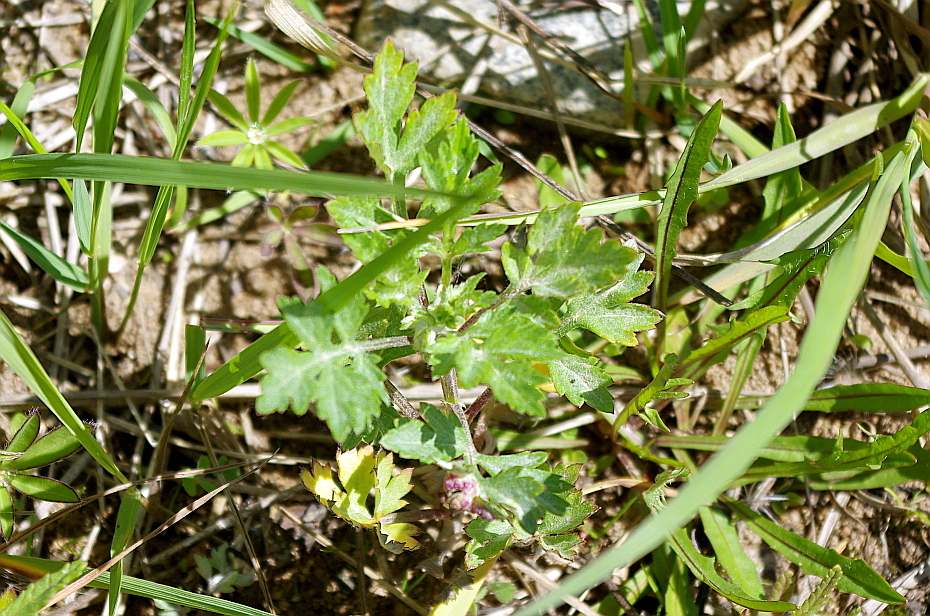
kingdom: Plantae
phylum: Tracheophyta
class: Magnoliopsida
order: Asterales
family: Asteraceae
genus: Artemisia
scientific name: Artemisia vulgaris
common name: Mugwort
